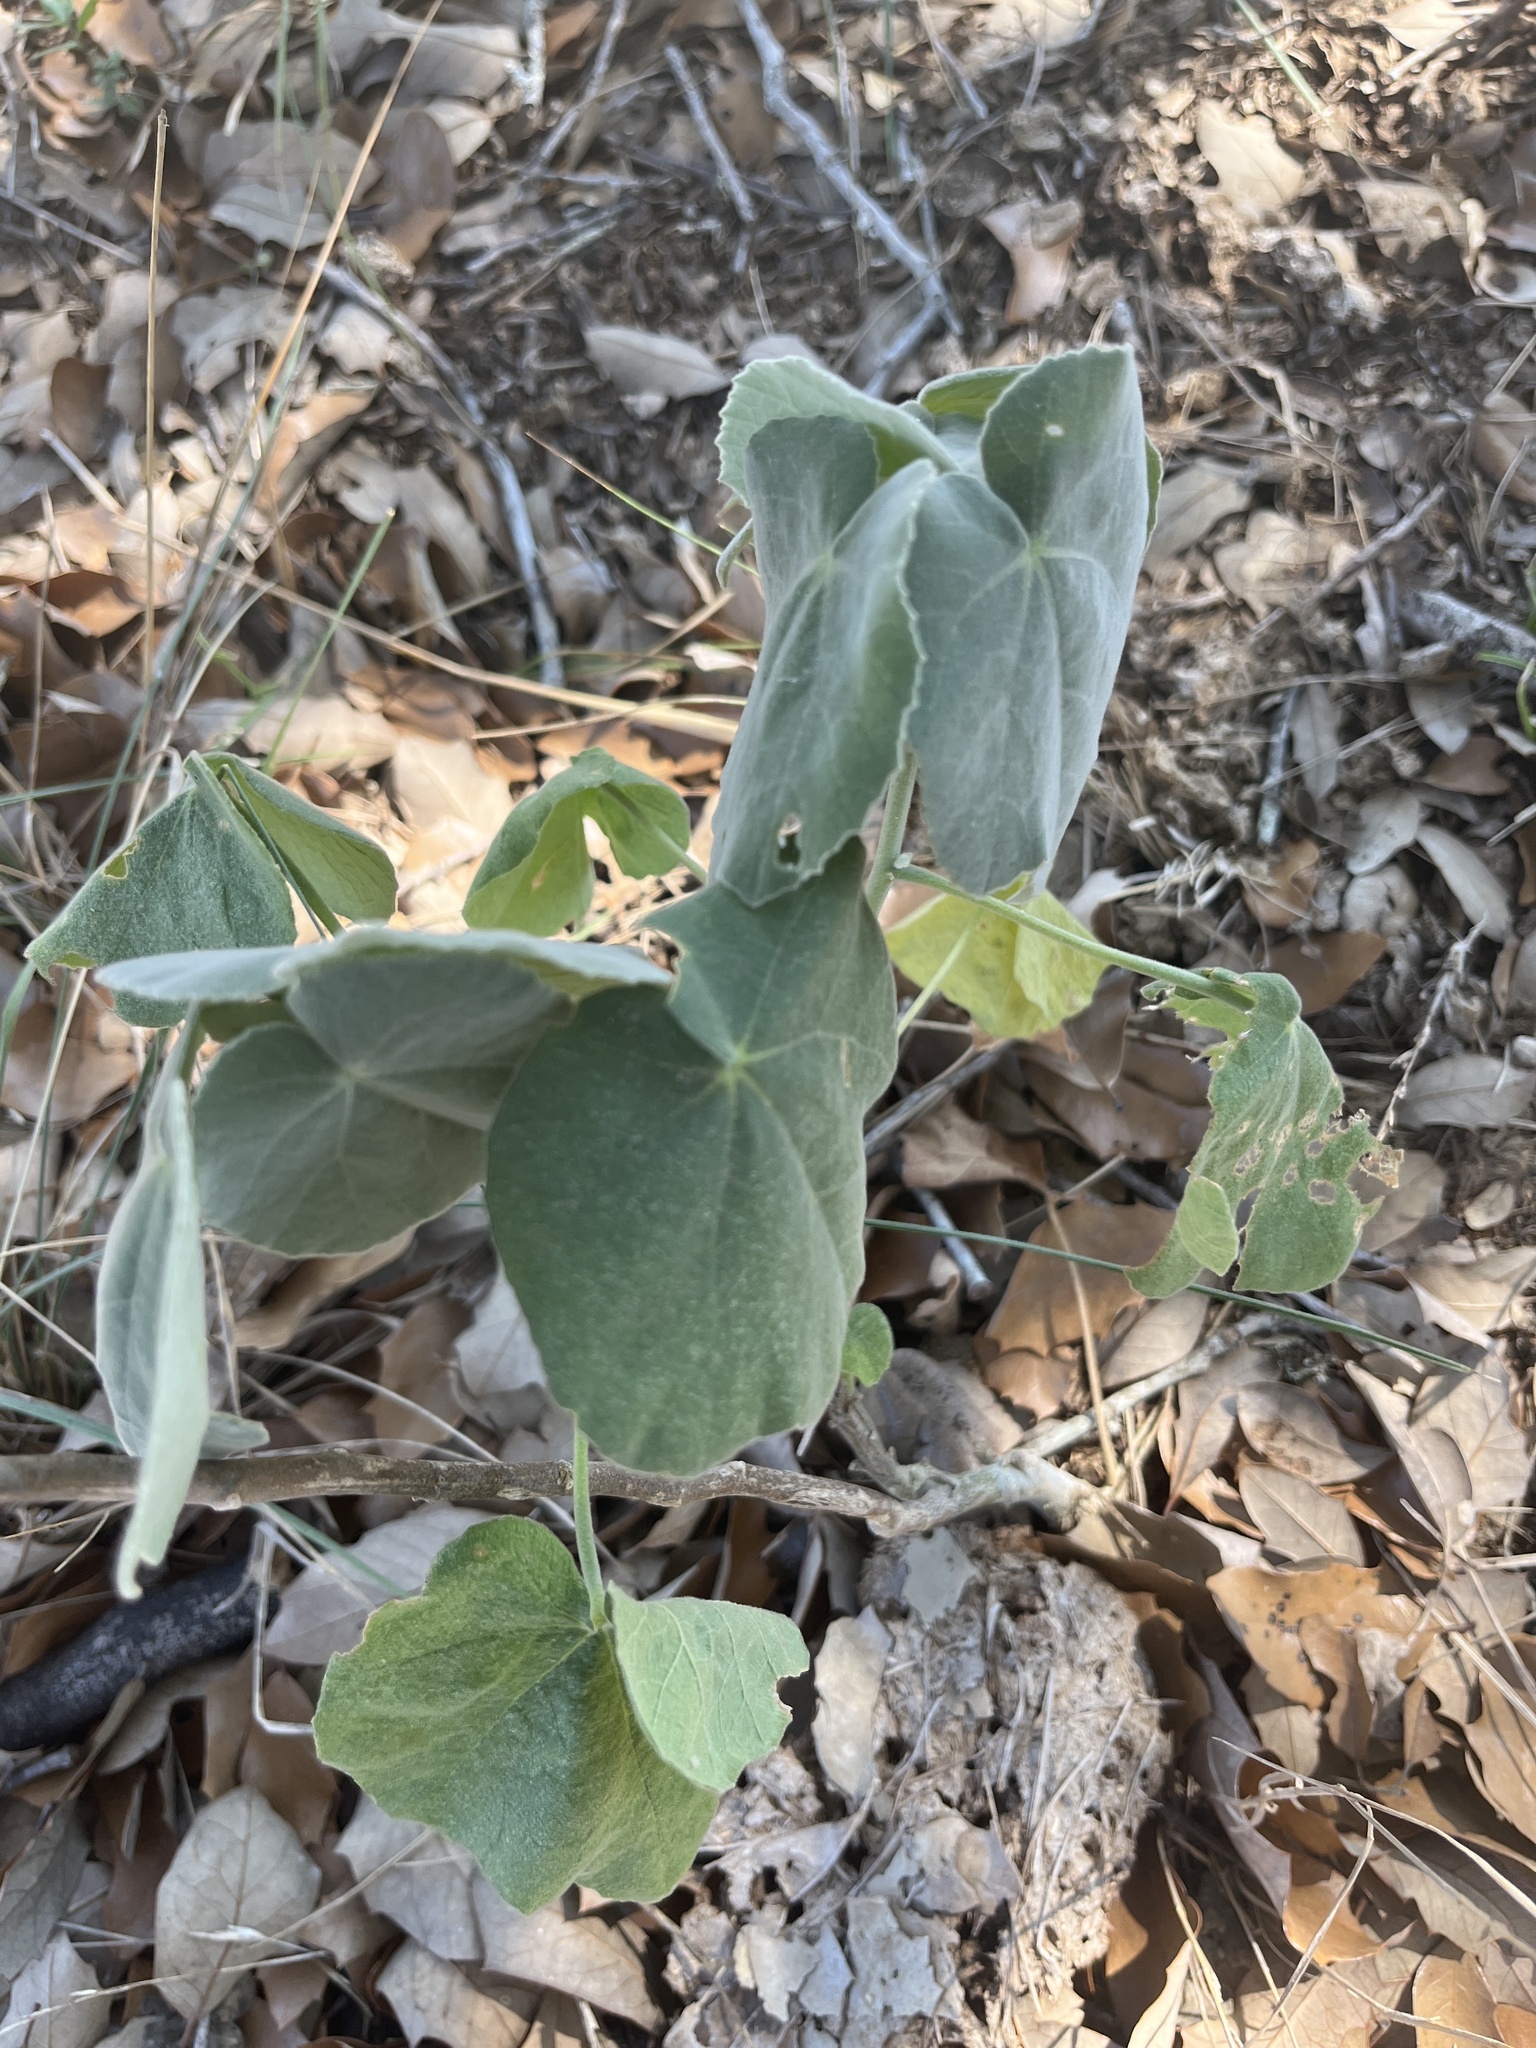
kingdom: Plantae
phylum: Tracheophyta
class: Magnoliopsida
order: Malvales
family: Malvaceae
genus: Allowissadula
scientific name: Allowissadula holosericea
